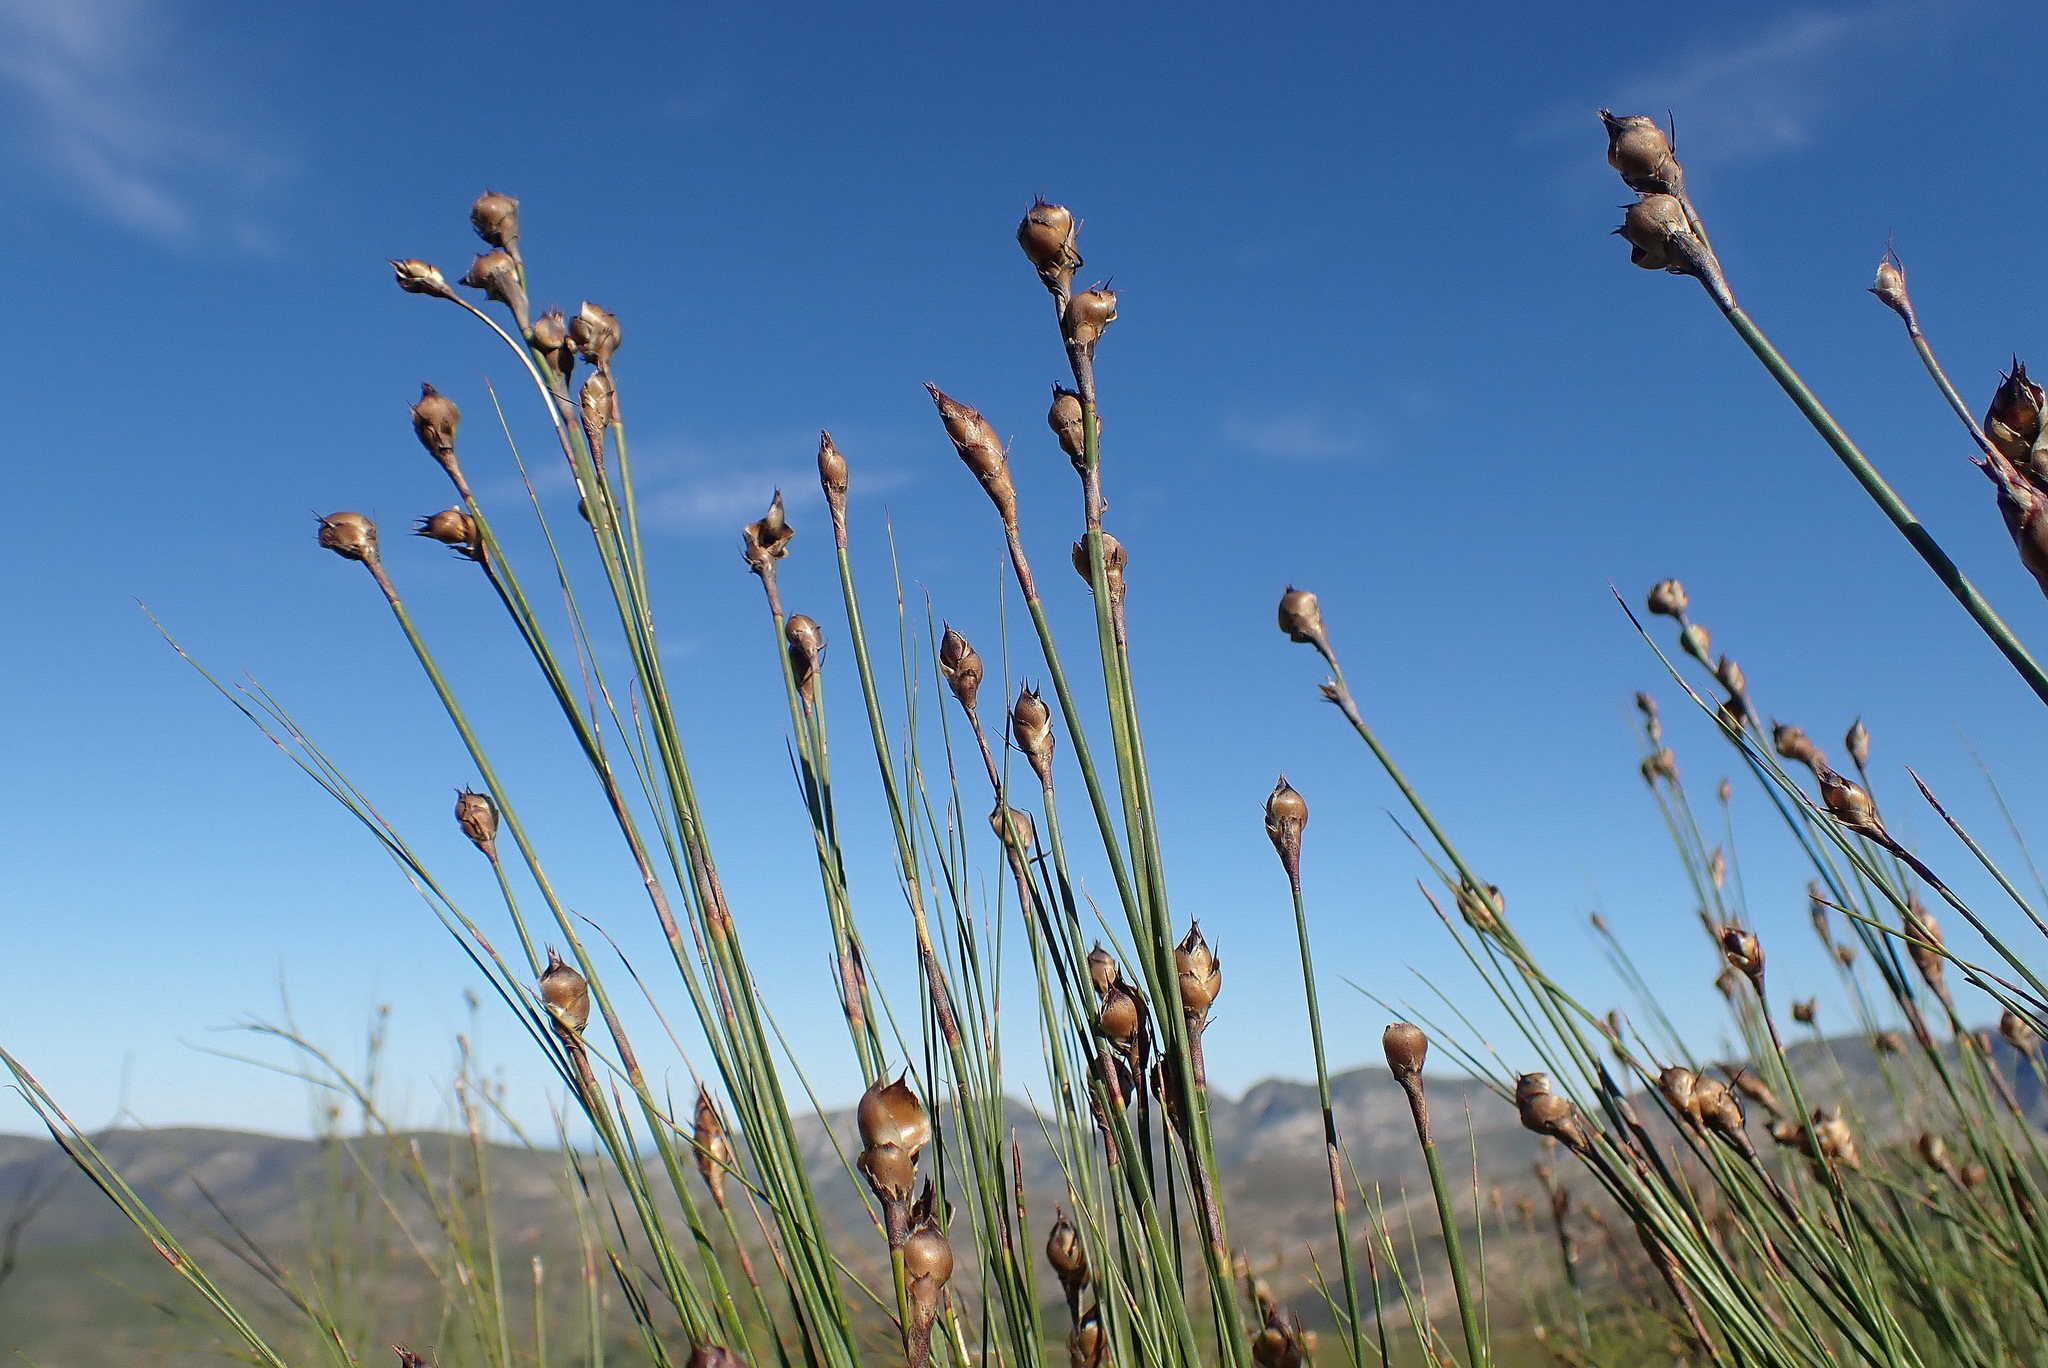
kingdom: Plantae
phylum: Tracheophyta
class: Liliopsida
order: Poales
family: Restionaceae
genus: Cannomois
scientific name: Cannomois virgata
